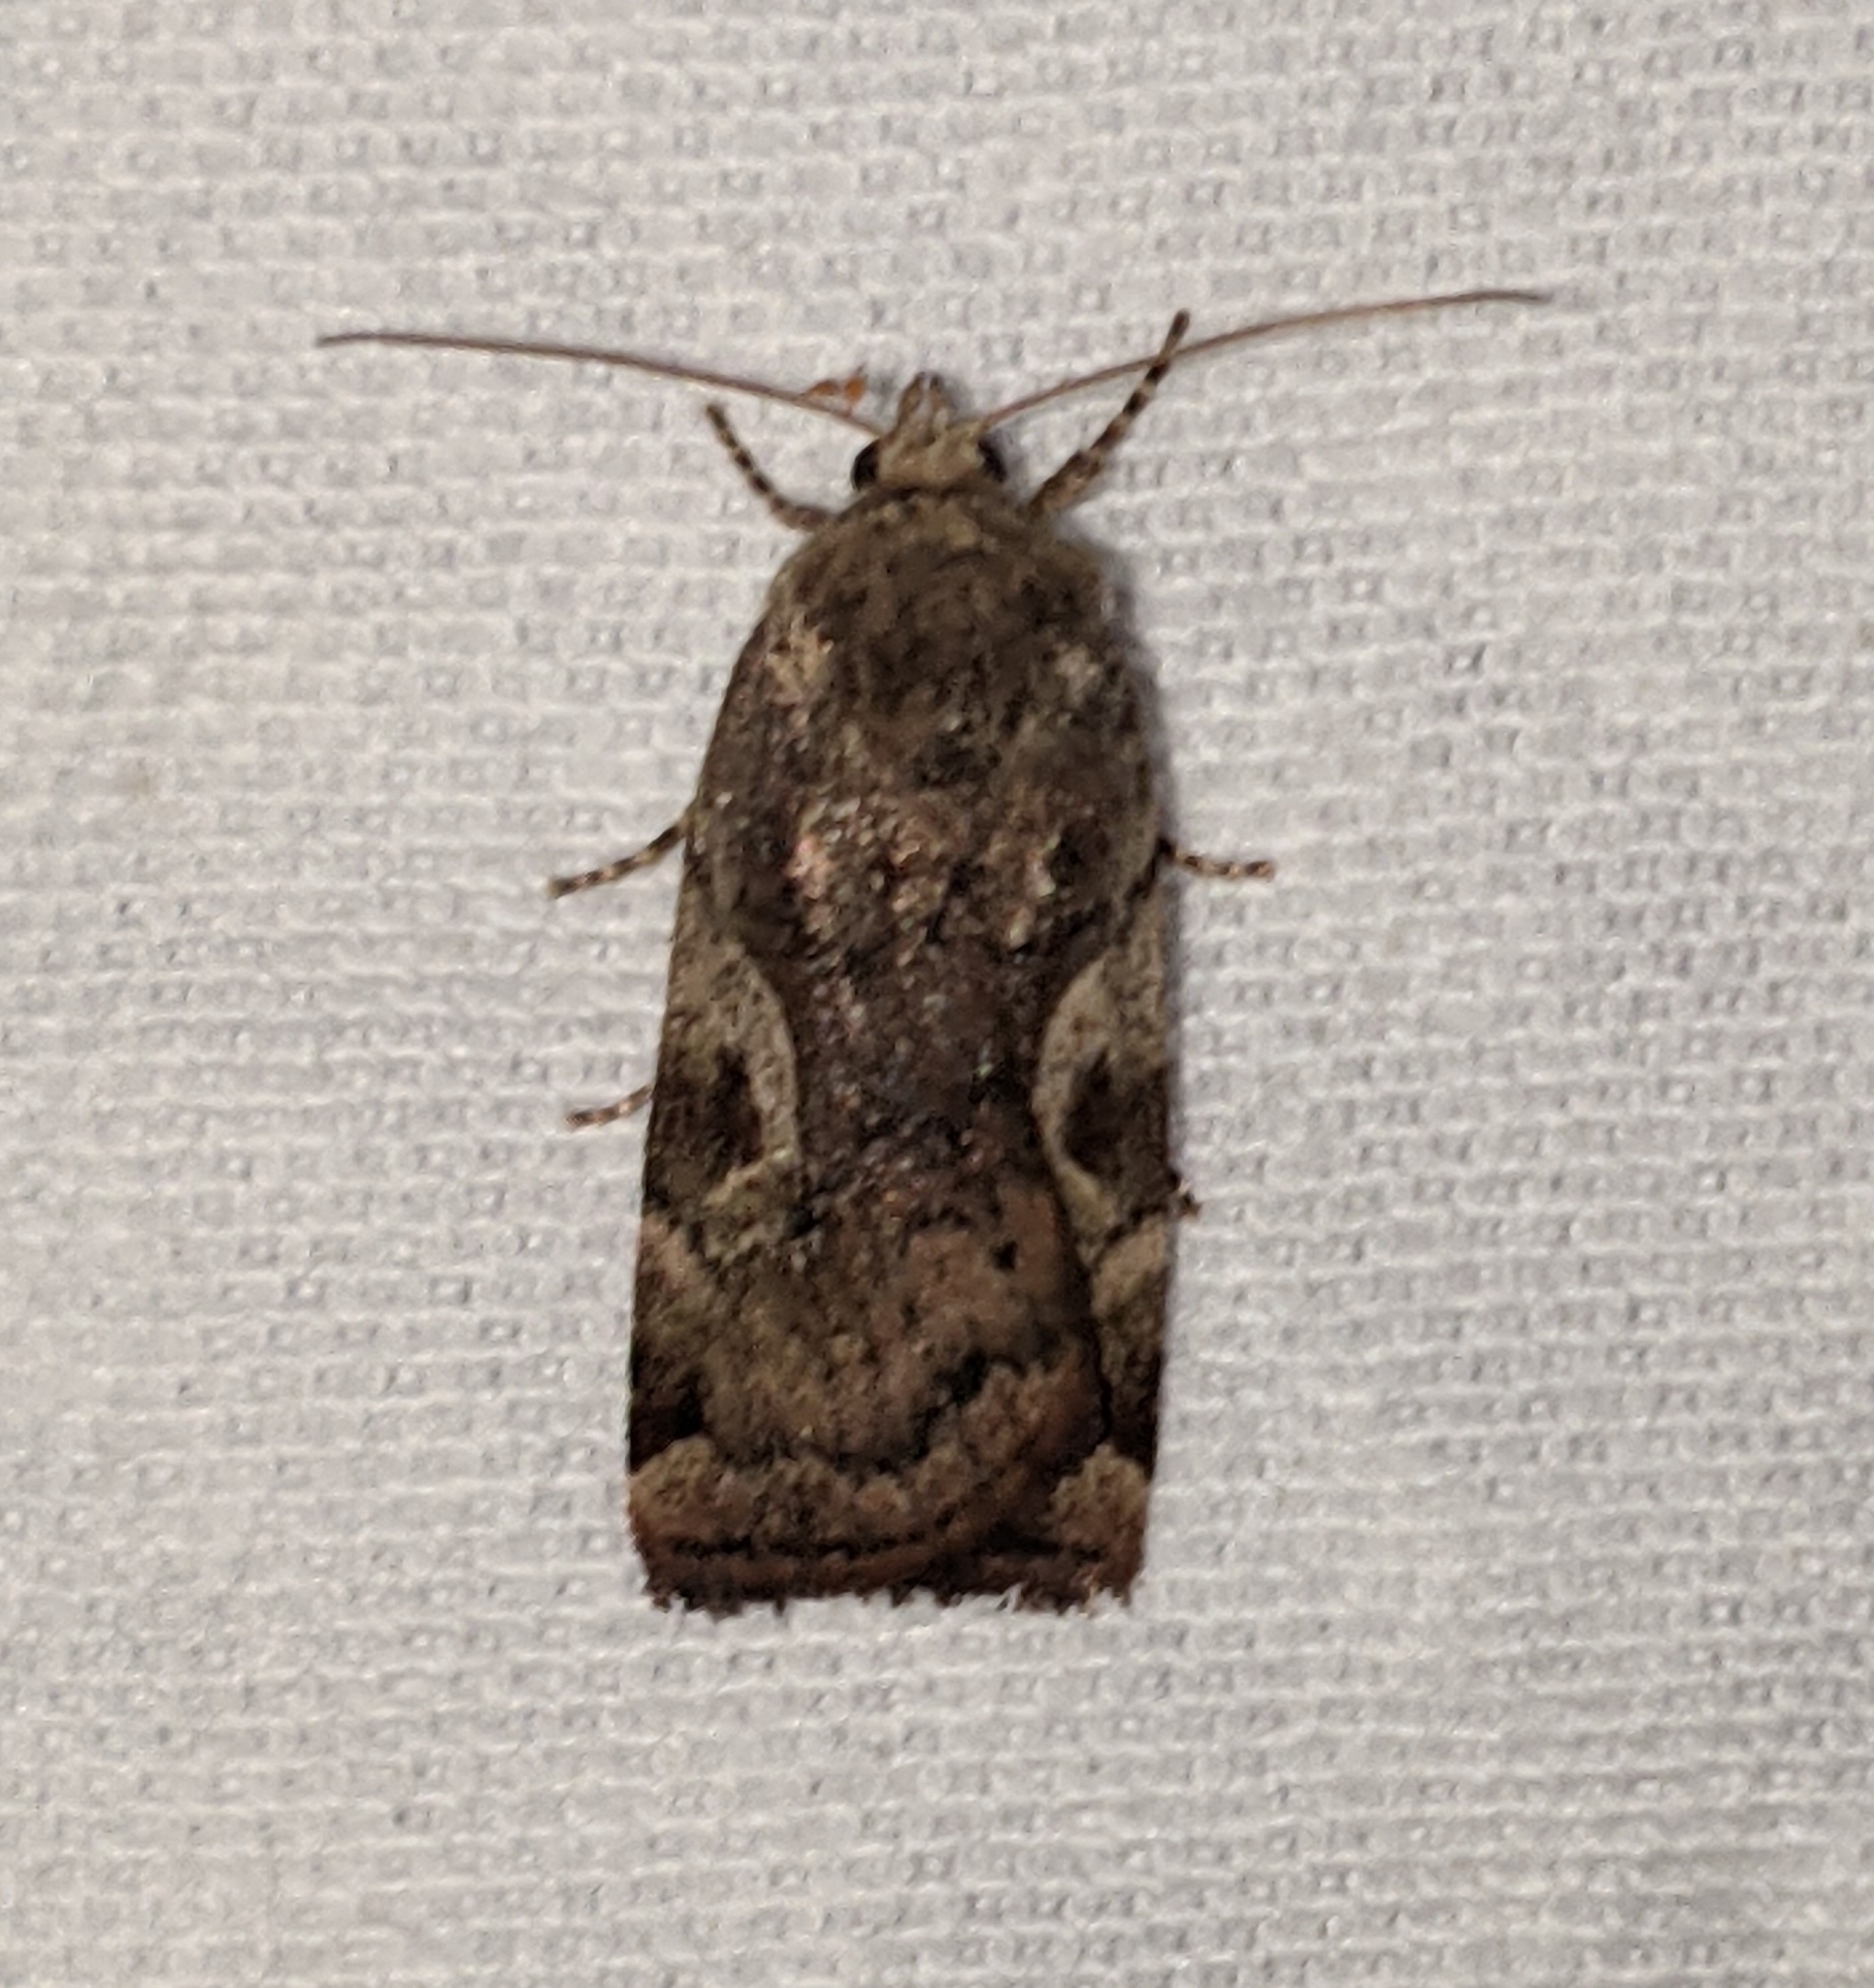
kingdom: Animalia
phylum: Arthropoda
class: Insecta
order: Lepidoptera
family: Noctuidae
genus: Cryptocala
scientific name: Cryptocala acadiensis
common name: Catocaline dart
